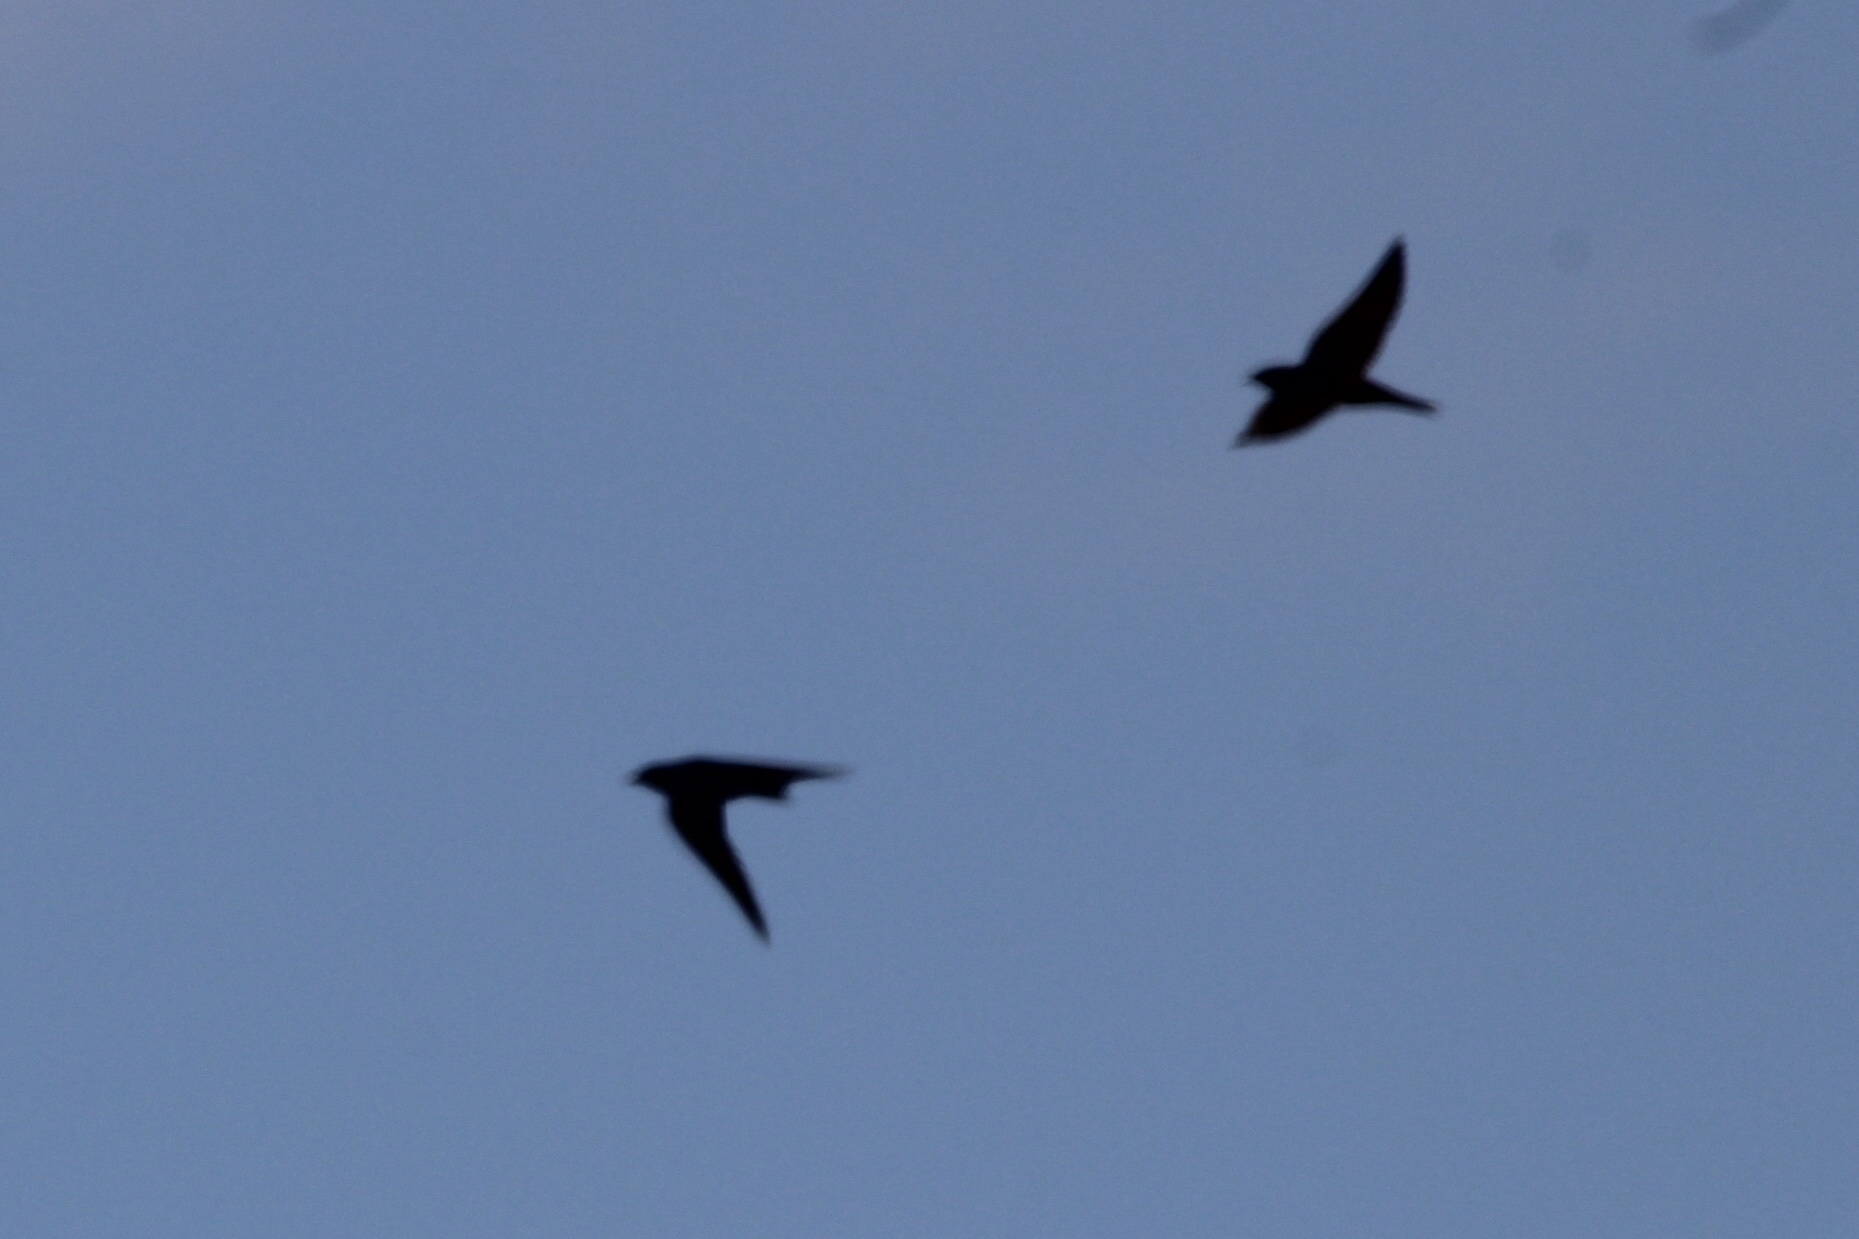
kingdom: Animalia
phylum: Chordata
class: Aves
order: Passeriformes
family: Hirundinidae
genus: Progne
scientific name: Progne subis
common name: Purple martin
